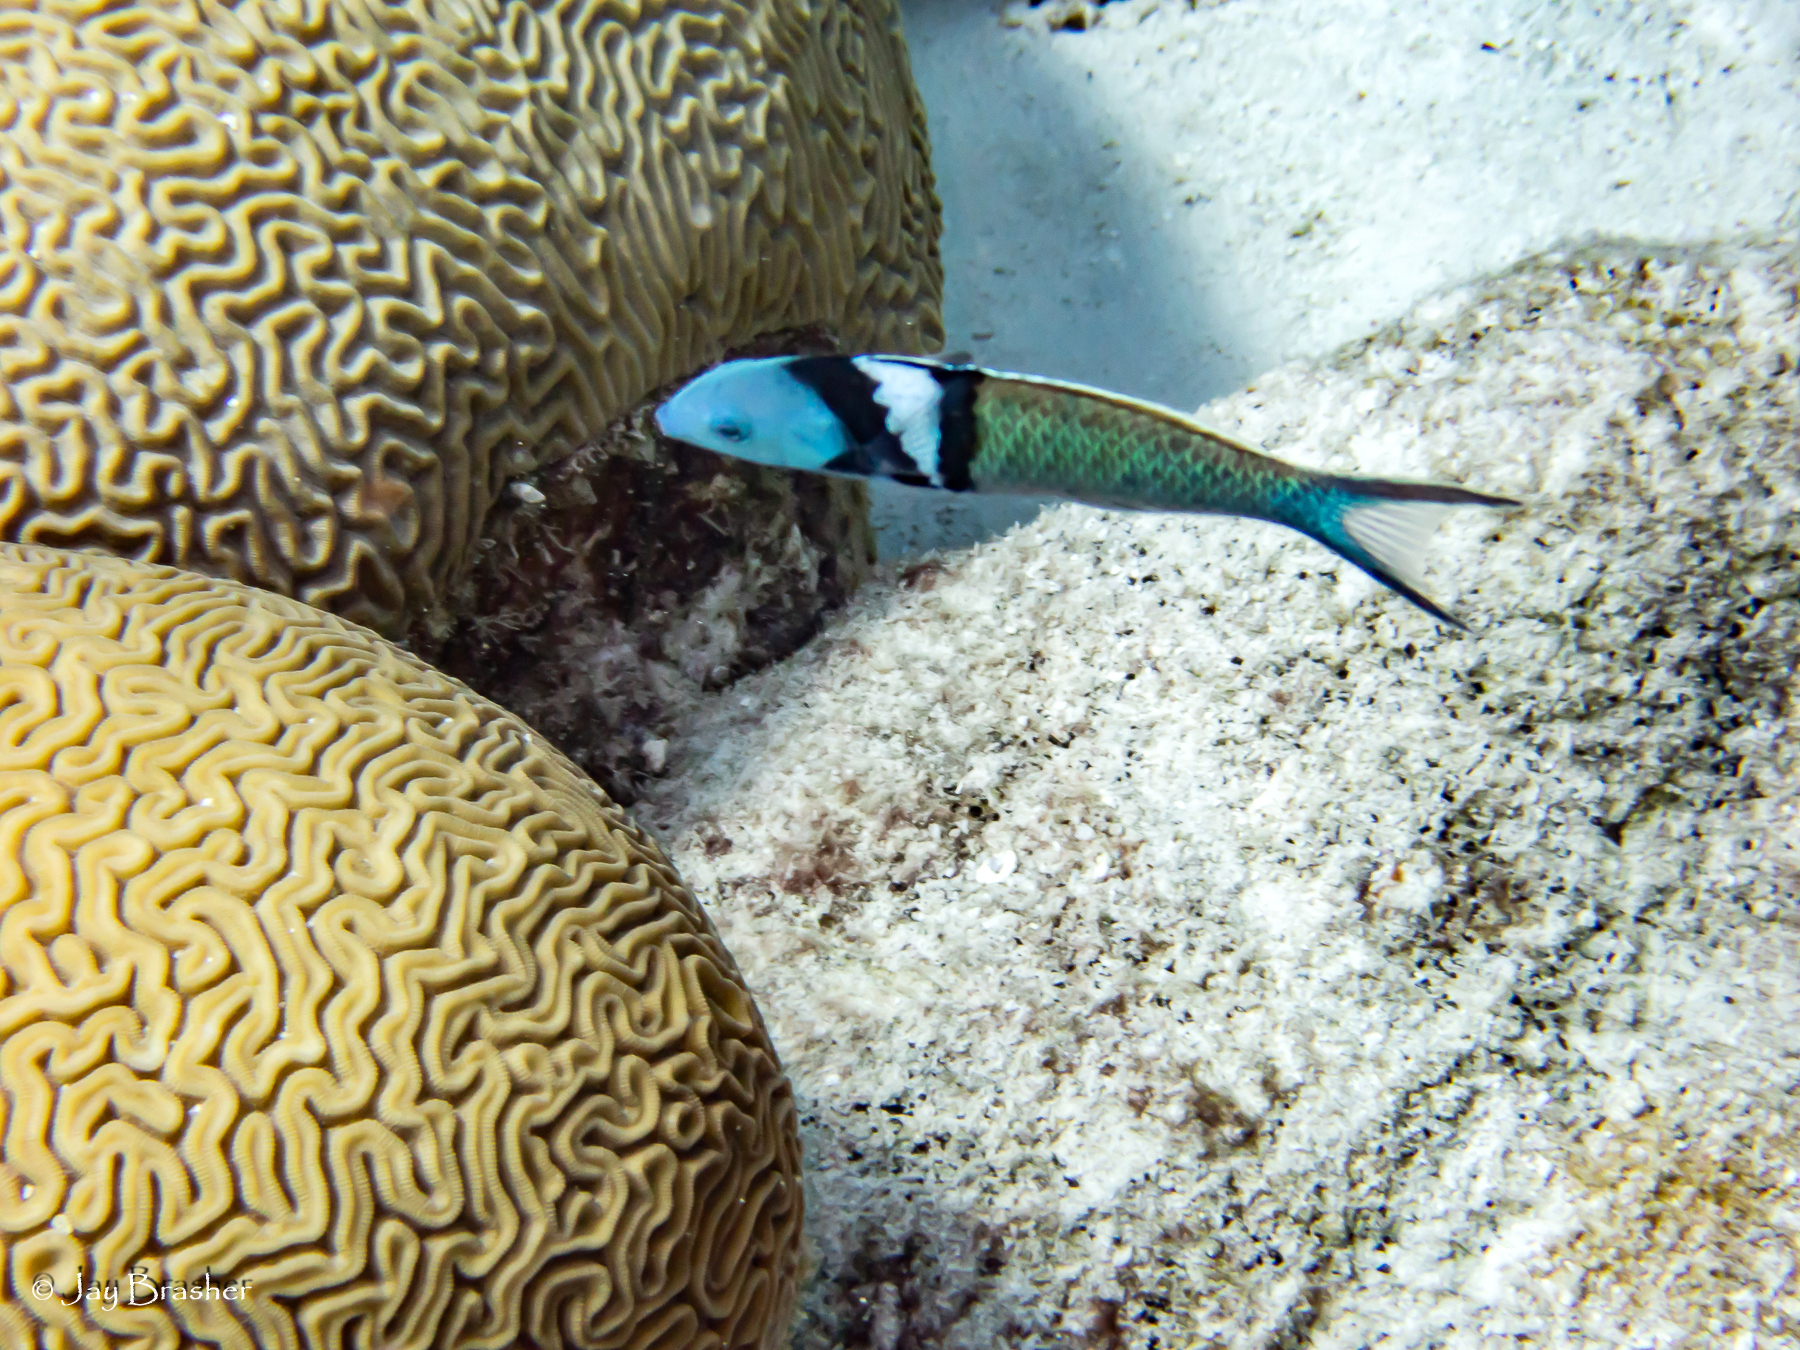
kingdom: Animalia
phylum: Chordata
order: Perciformes
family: Labridae
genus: Thalassoma
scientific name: Thalassoma bifasciatum
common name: Bluehead wrasse
